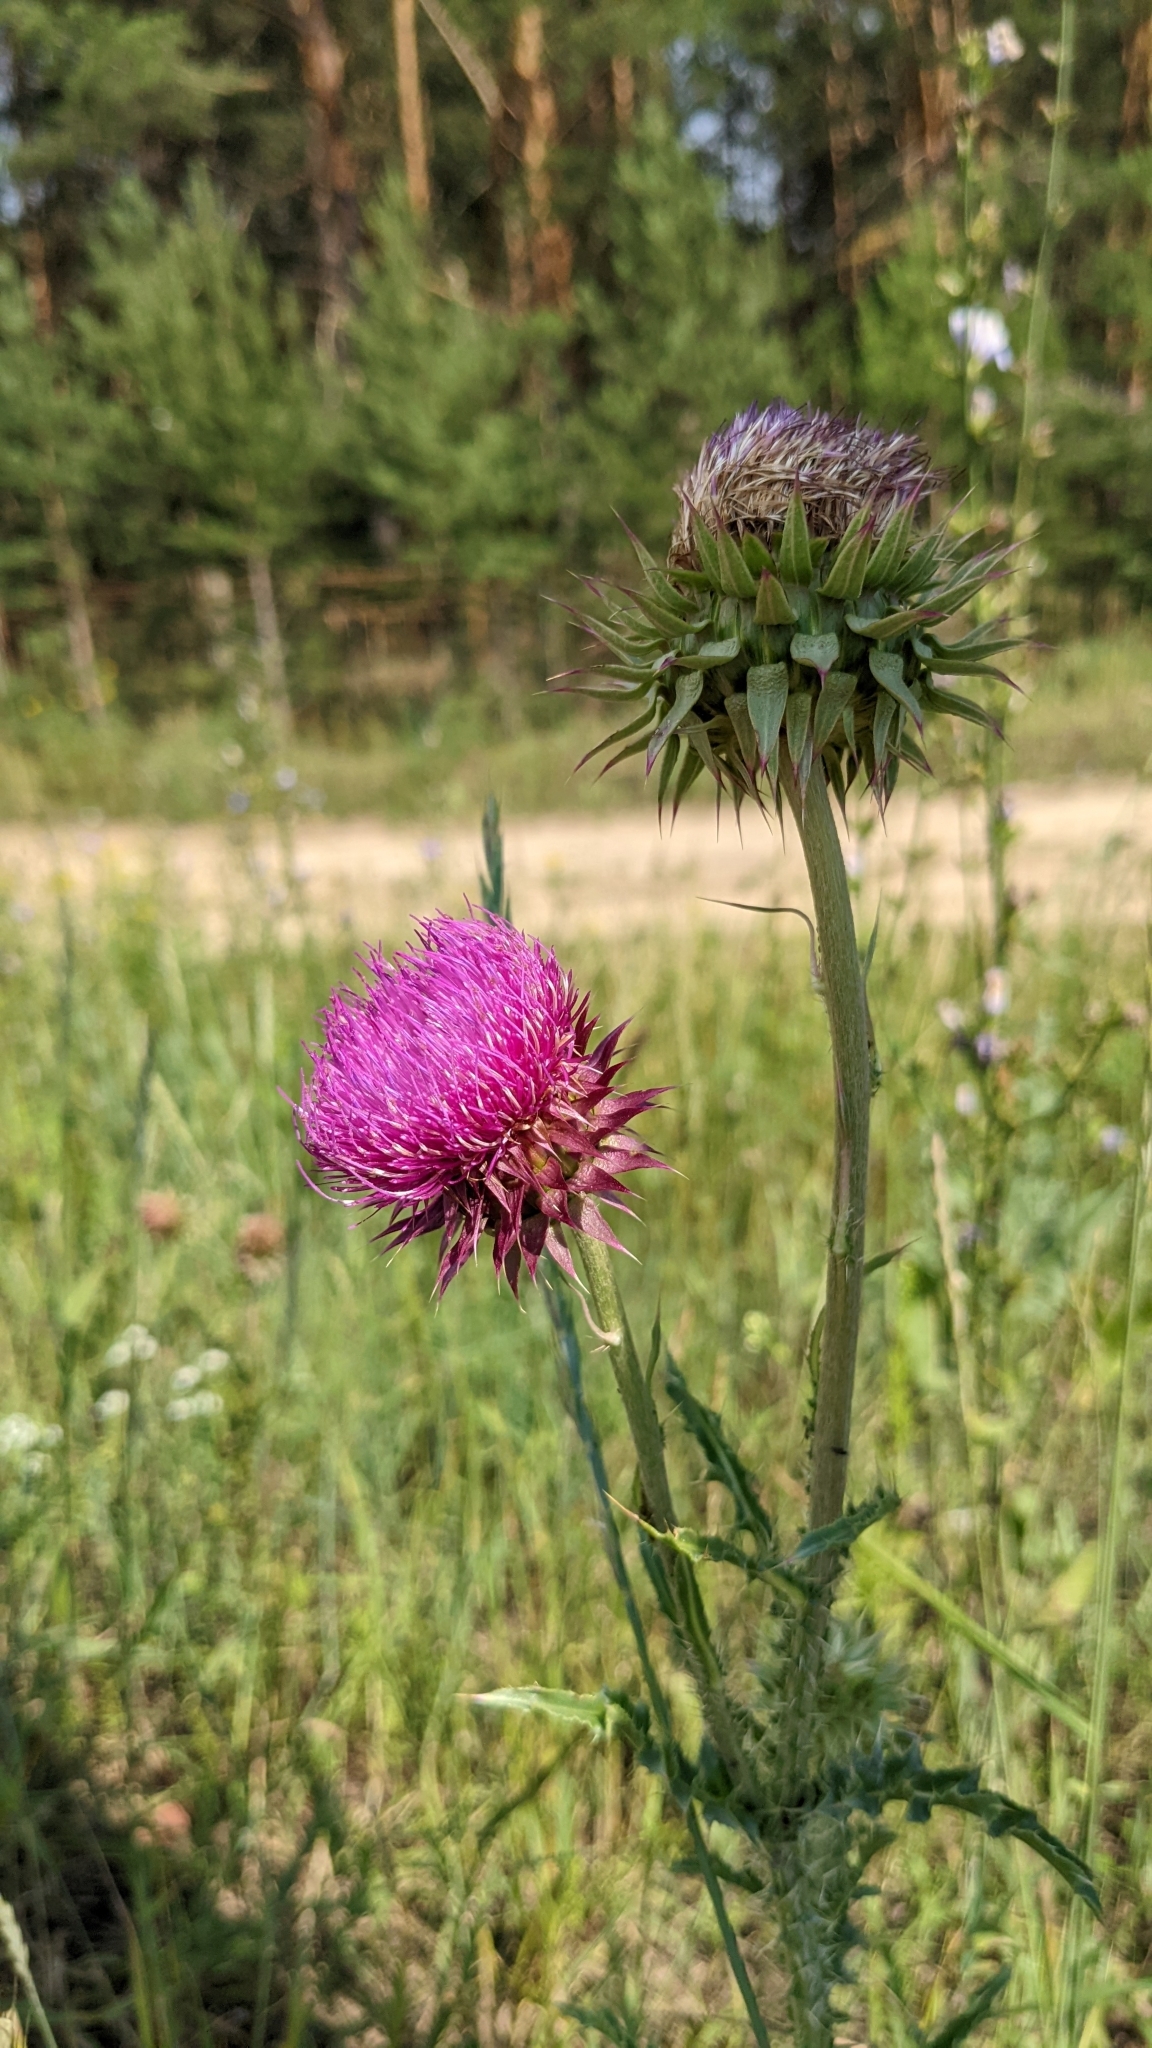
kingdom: Plantae
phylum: Tracheophyta
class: Magnoliopsida
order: Asterales
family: Asteraceae
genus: Carduus
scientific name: Carduus nutans
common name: Musk thistle
